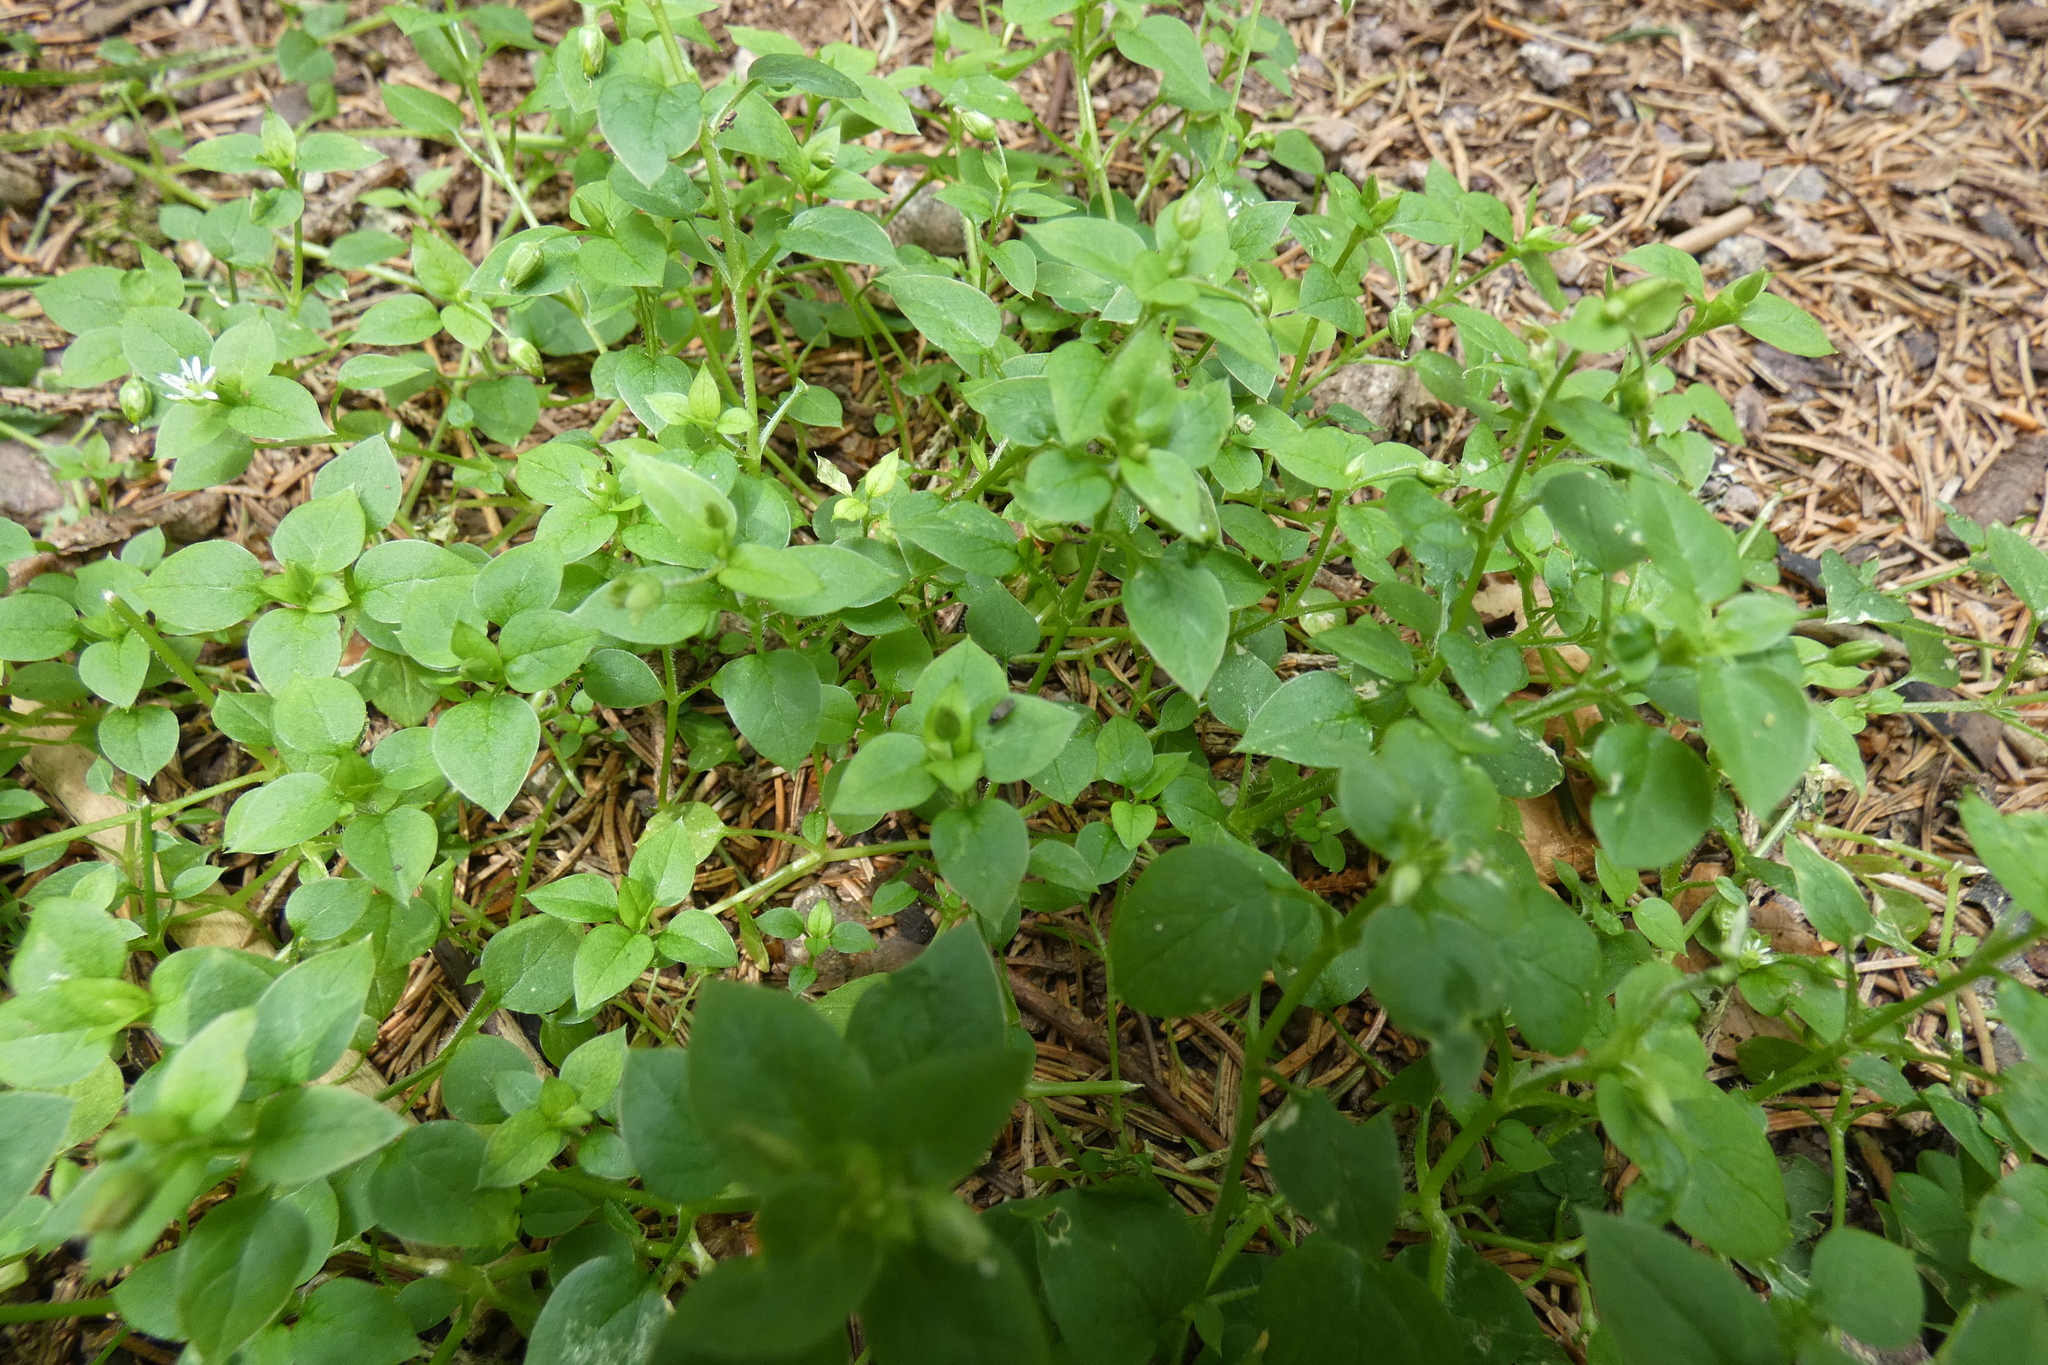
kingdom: Plantae
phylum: Tracheophyta
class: Magnoliopsida
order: Caryophyllales
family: Caryophyllaceae
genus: Stellaria
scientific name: Stellaria media
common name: Common chickweed
